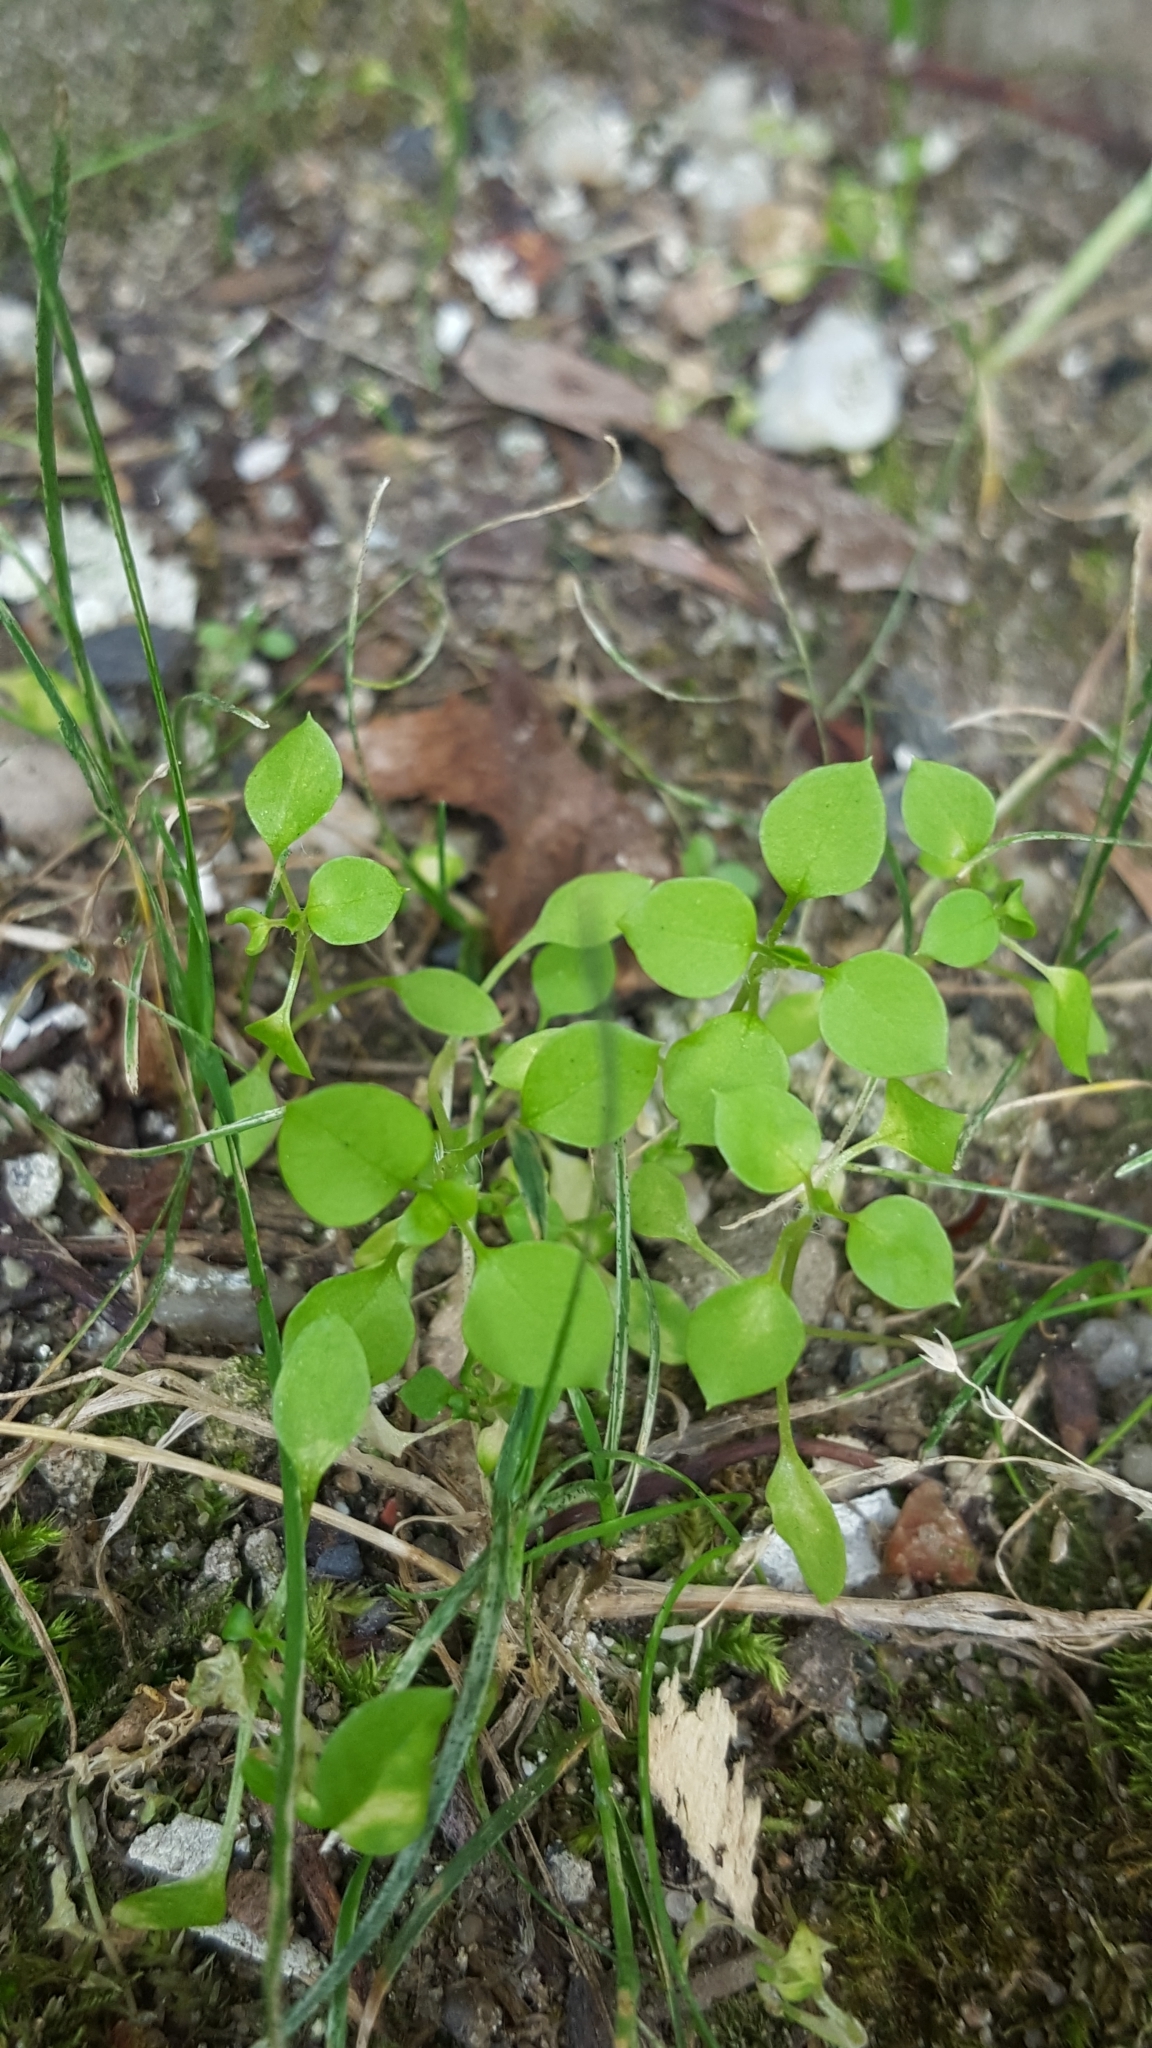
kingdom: Plantae
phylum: Tracheophyta
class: Magnoliopsida
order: Caryophyllales
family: Caryophyllaceae
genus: Stellaria
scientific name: Stellaria media
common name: Common chickweed
